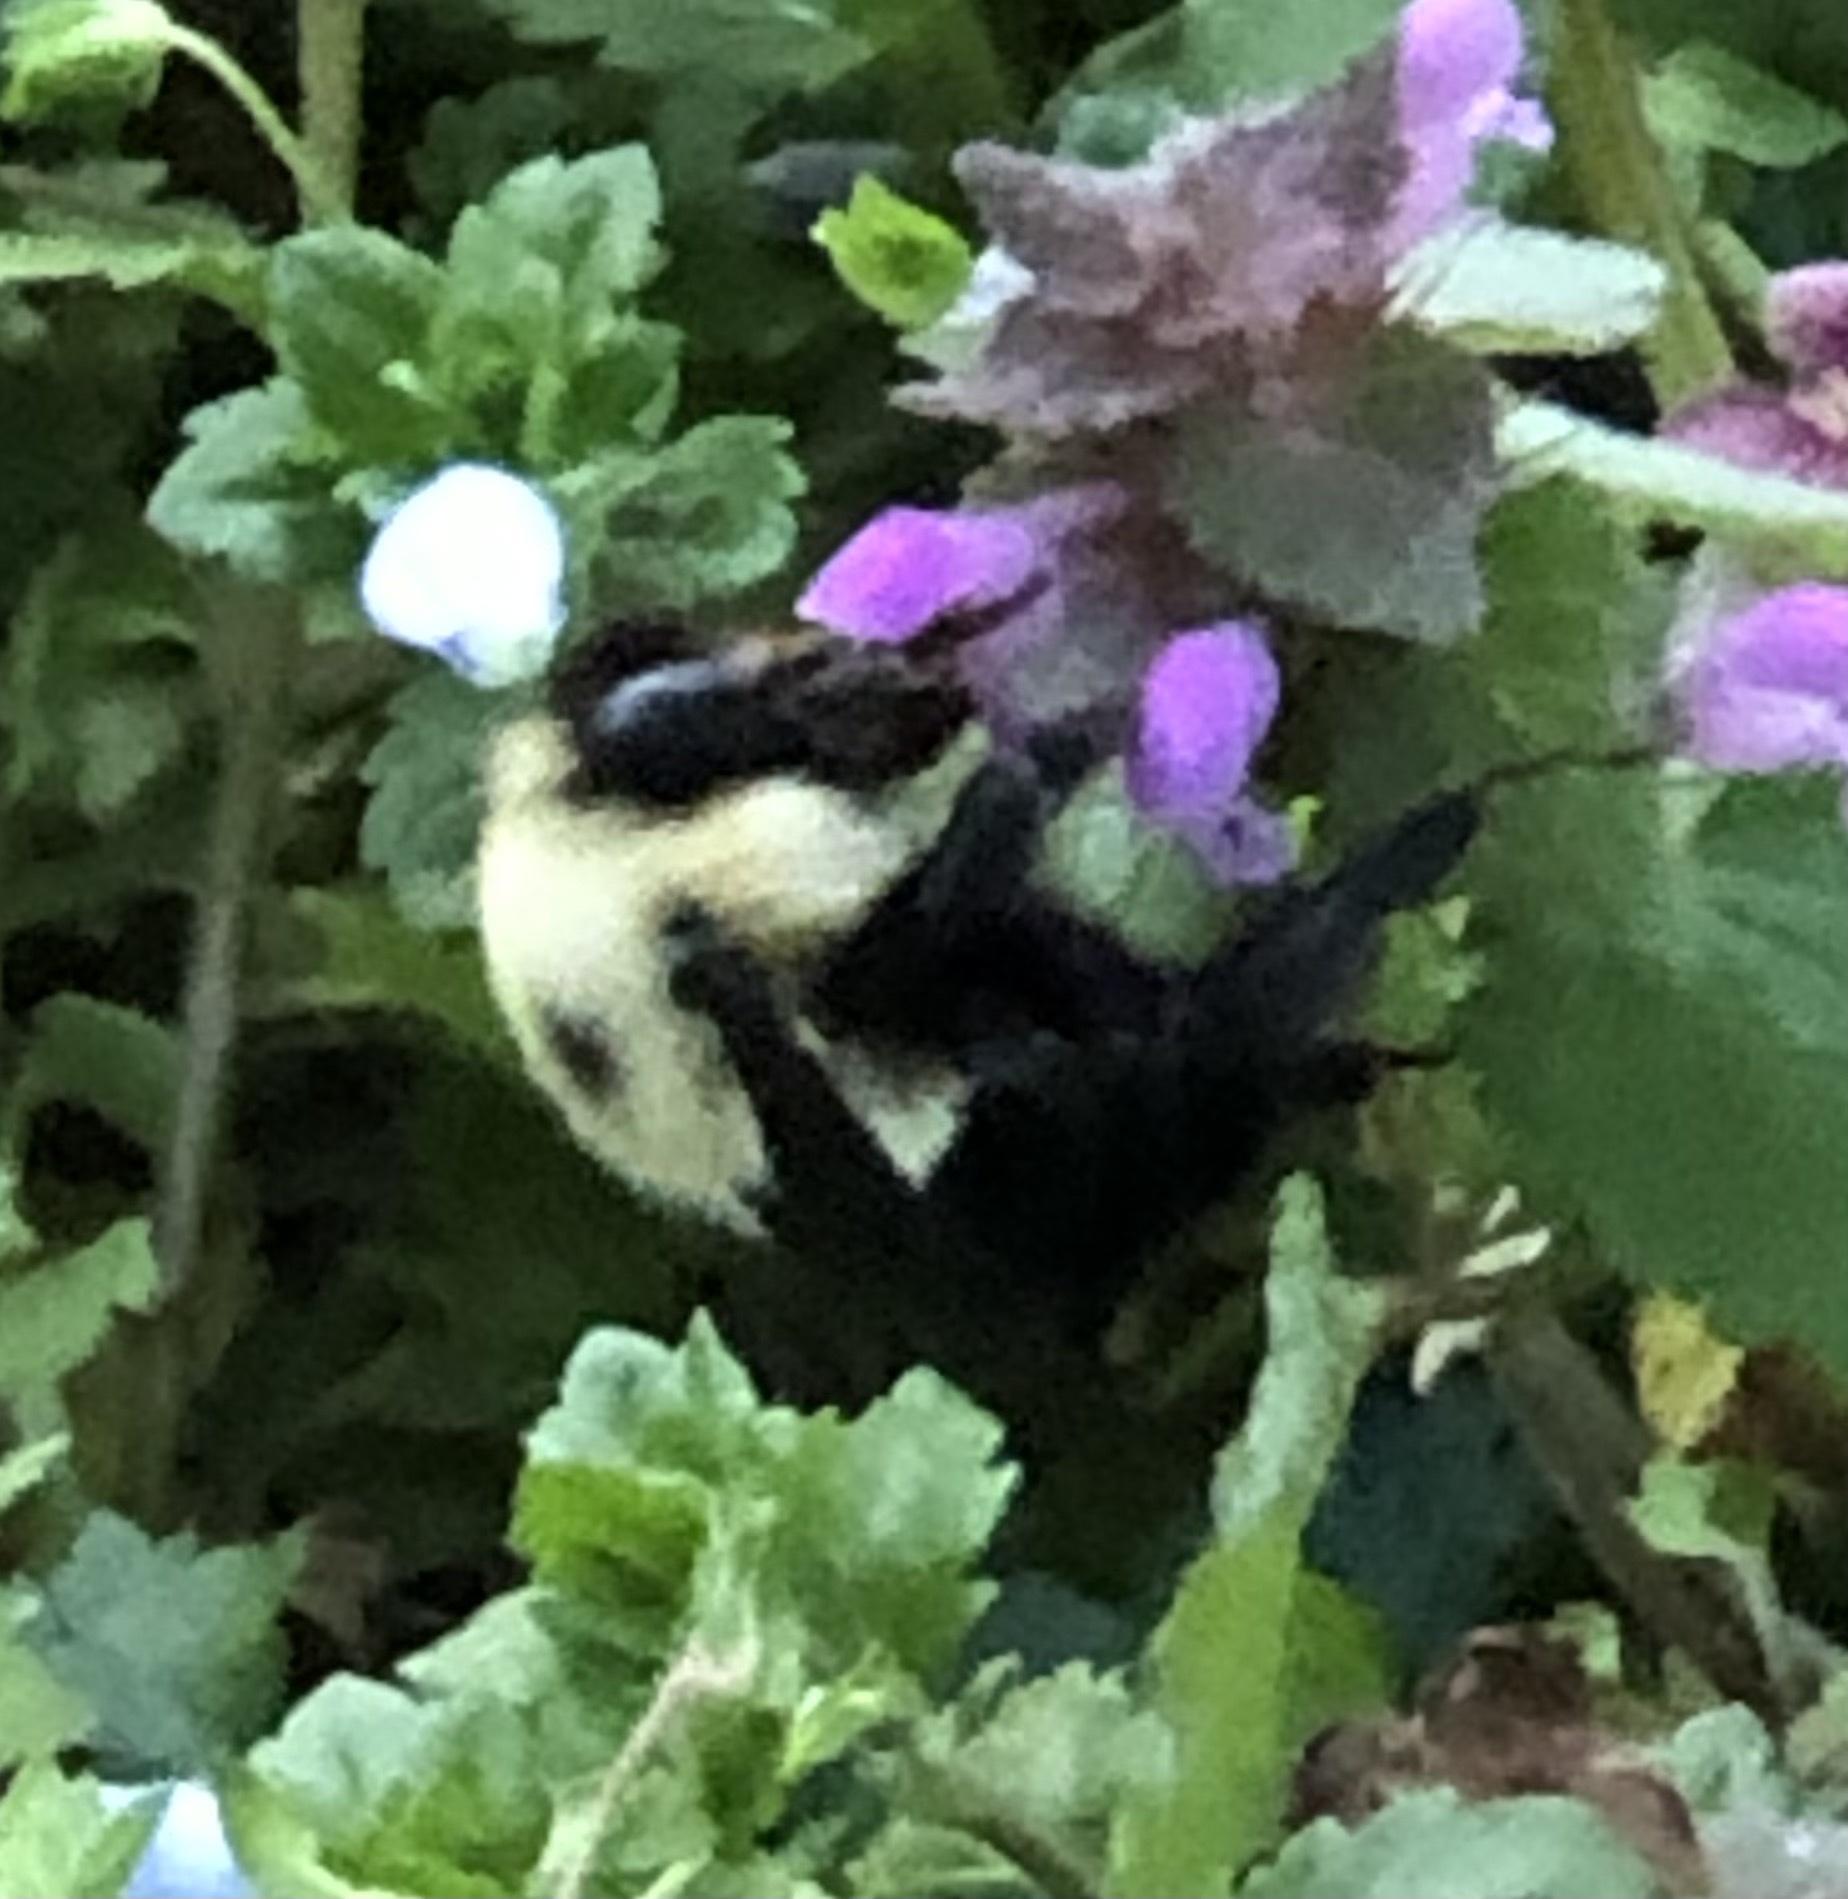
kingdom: Animalia
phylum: Arthropoda
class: Insecta
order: Hymenoptera
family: Apidae
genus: Bombus
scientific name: Bombus bimaculatus
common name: Two-spotted bumble bee
